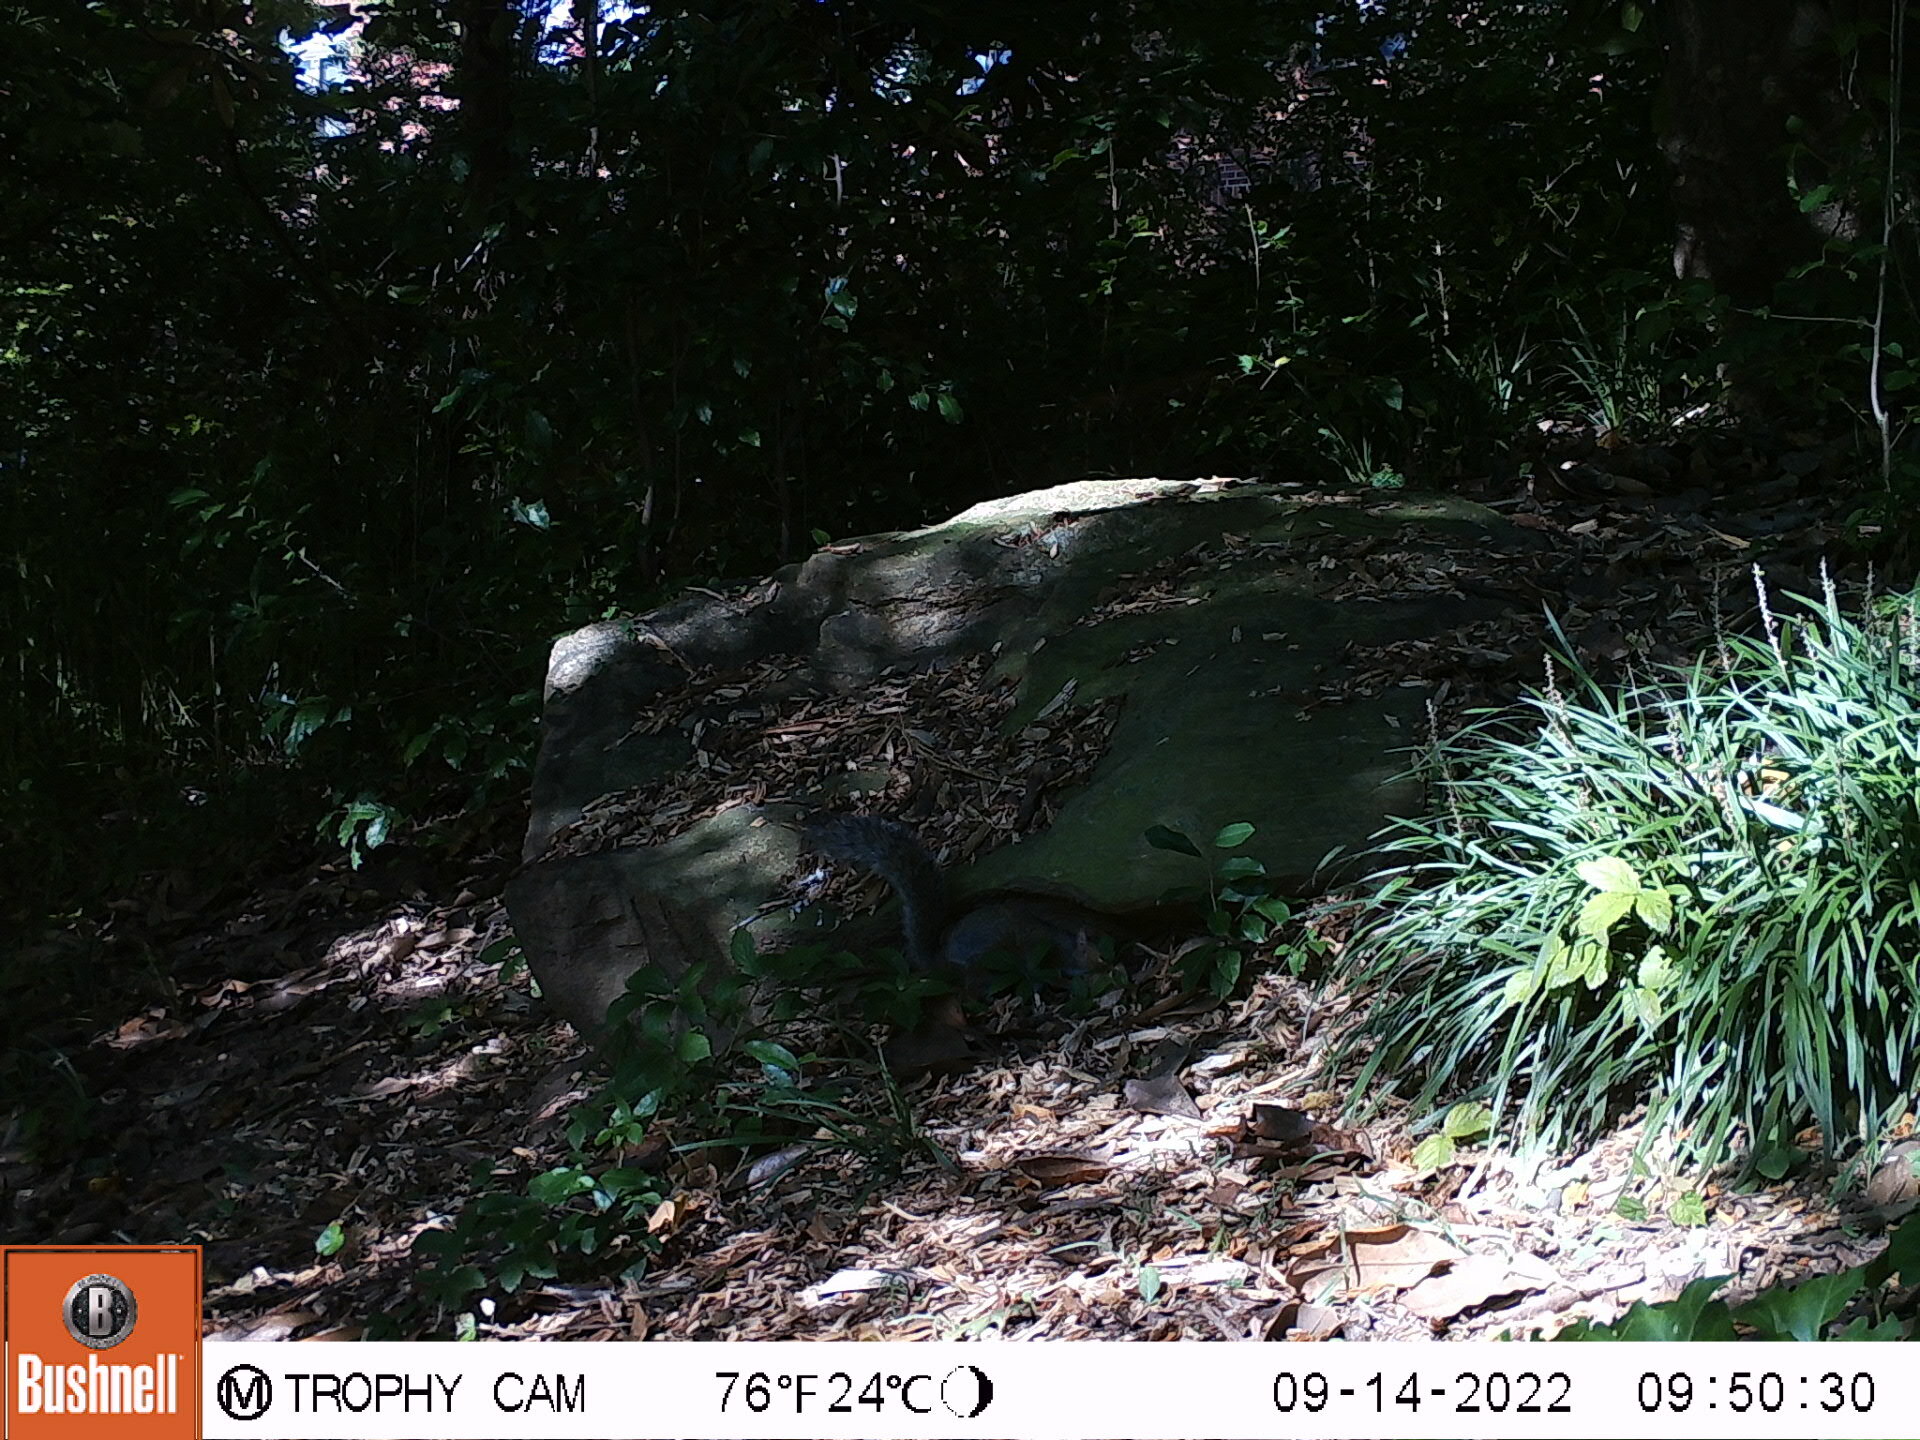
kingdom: Animalia
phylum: Chordata
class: Mammalia
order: Rodentia
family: Sciuridae
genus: Sciurus
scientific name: Sciurus carolinensis
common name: Eastern gray squirrel
